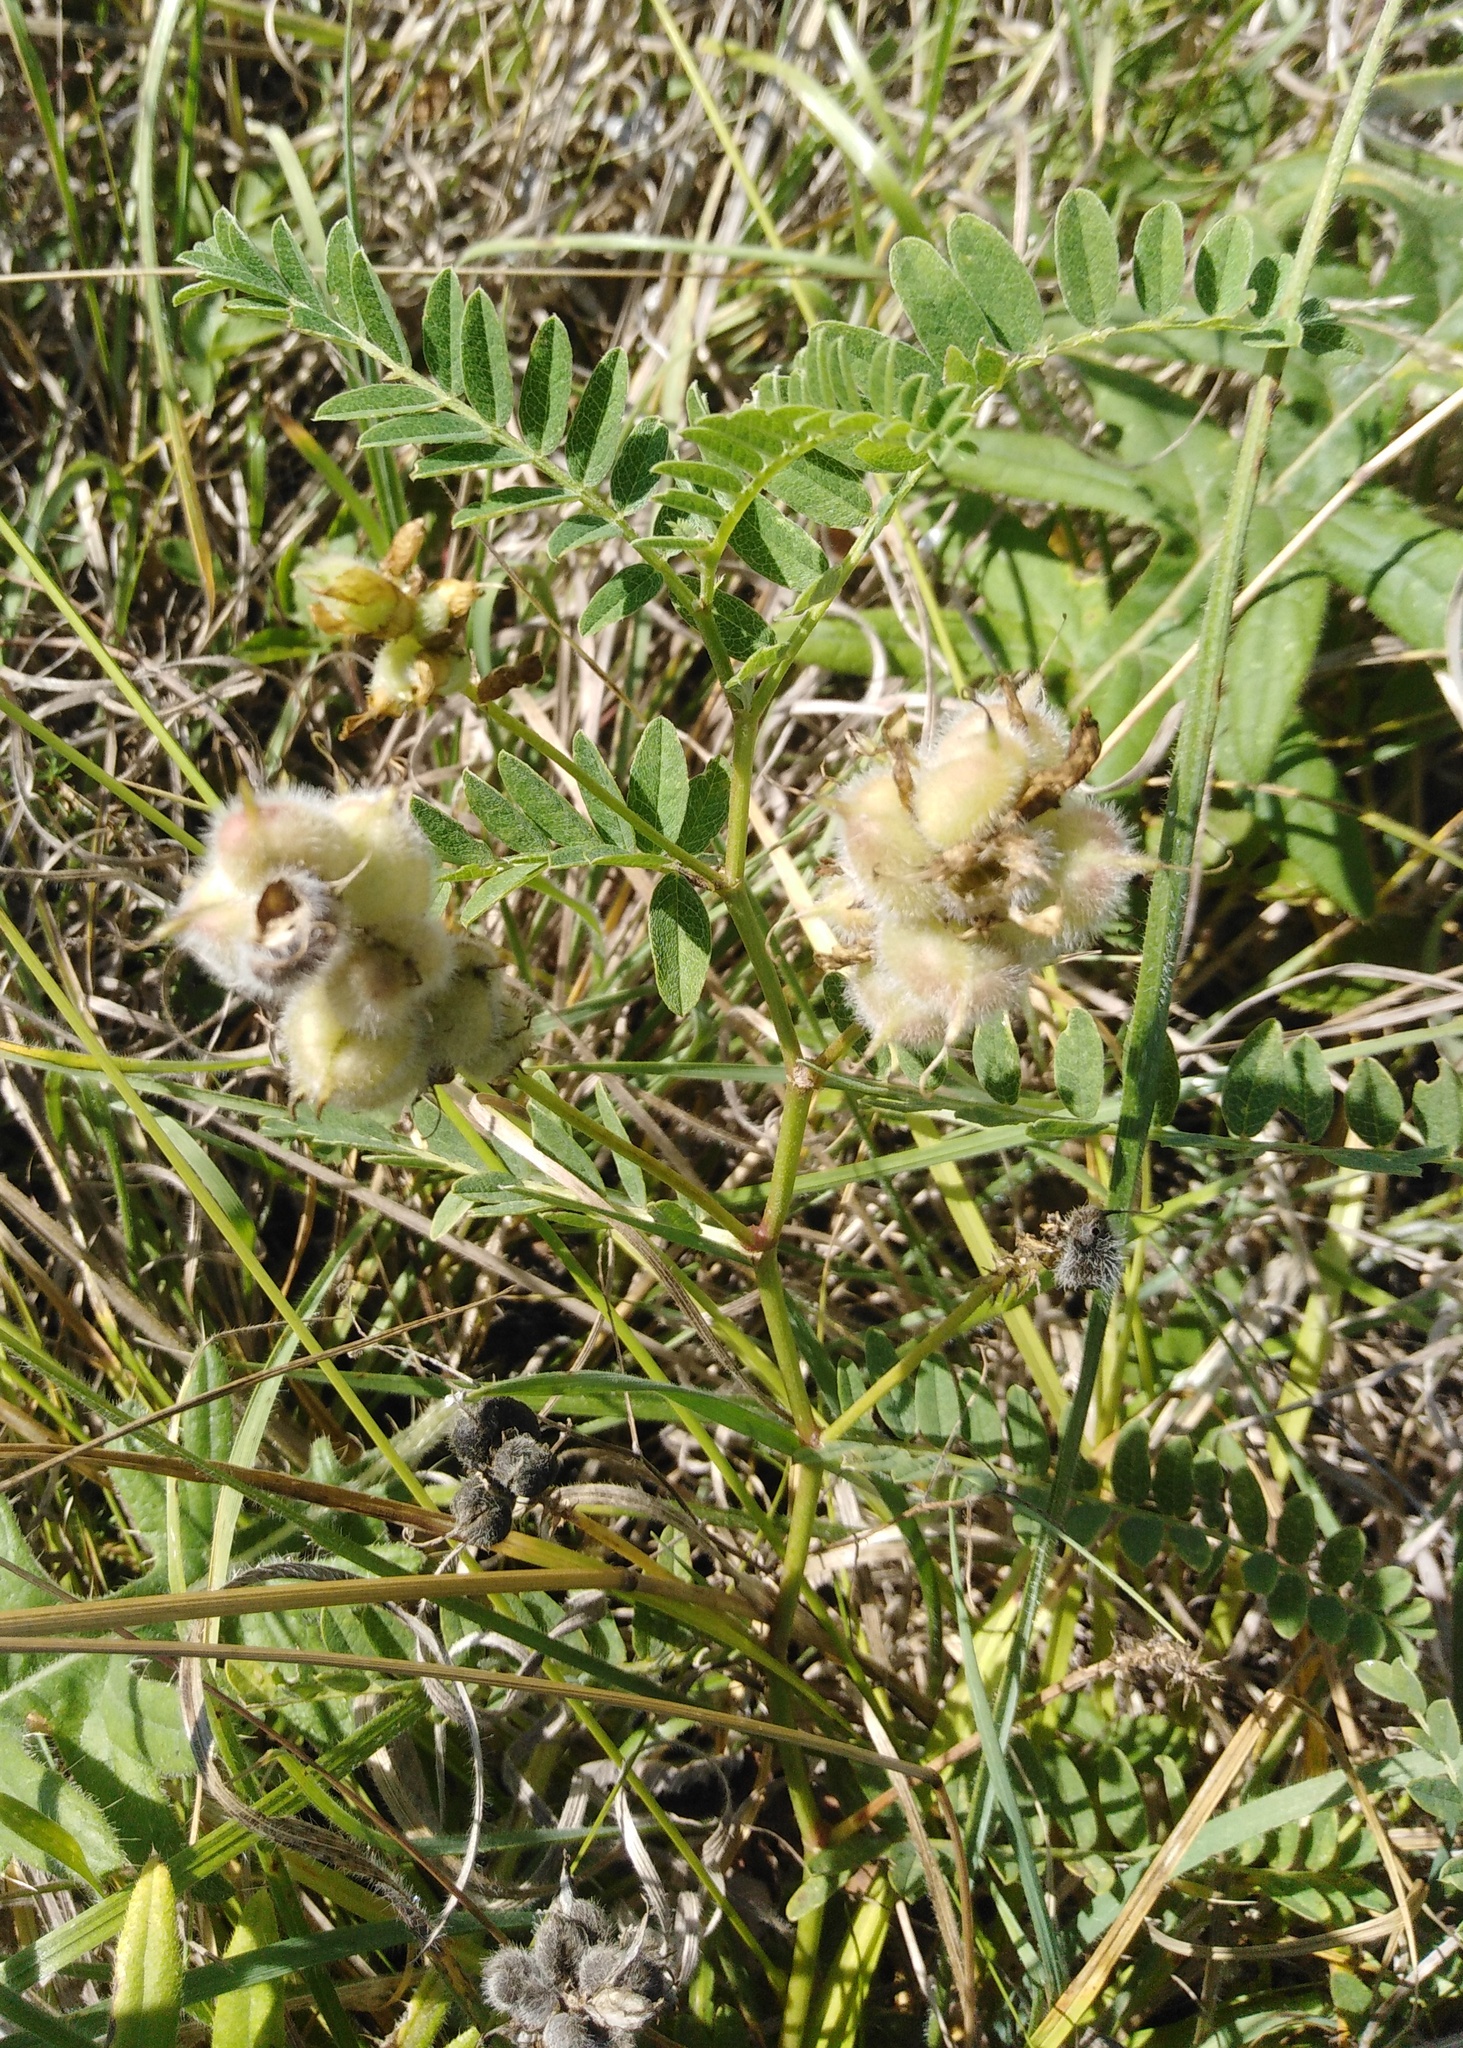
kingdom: Plantae
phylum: Tracheophyta
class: Magnoliopsida
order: Fabales
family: Fabaceae
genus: Astragalus
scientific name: Astragalus cicer
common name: Chick-pea milk-vetch
